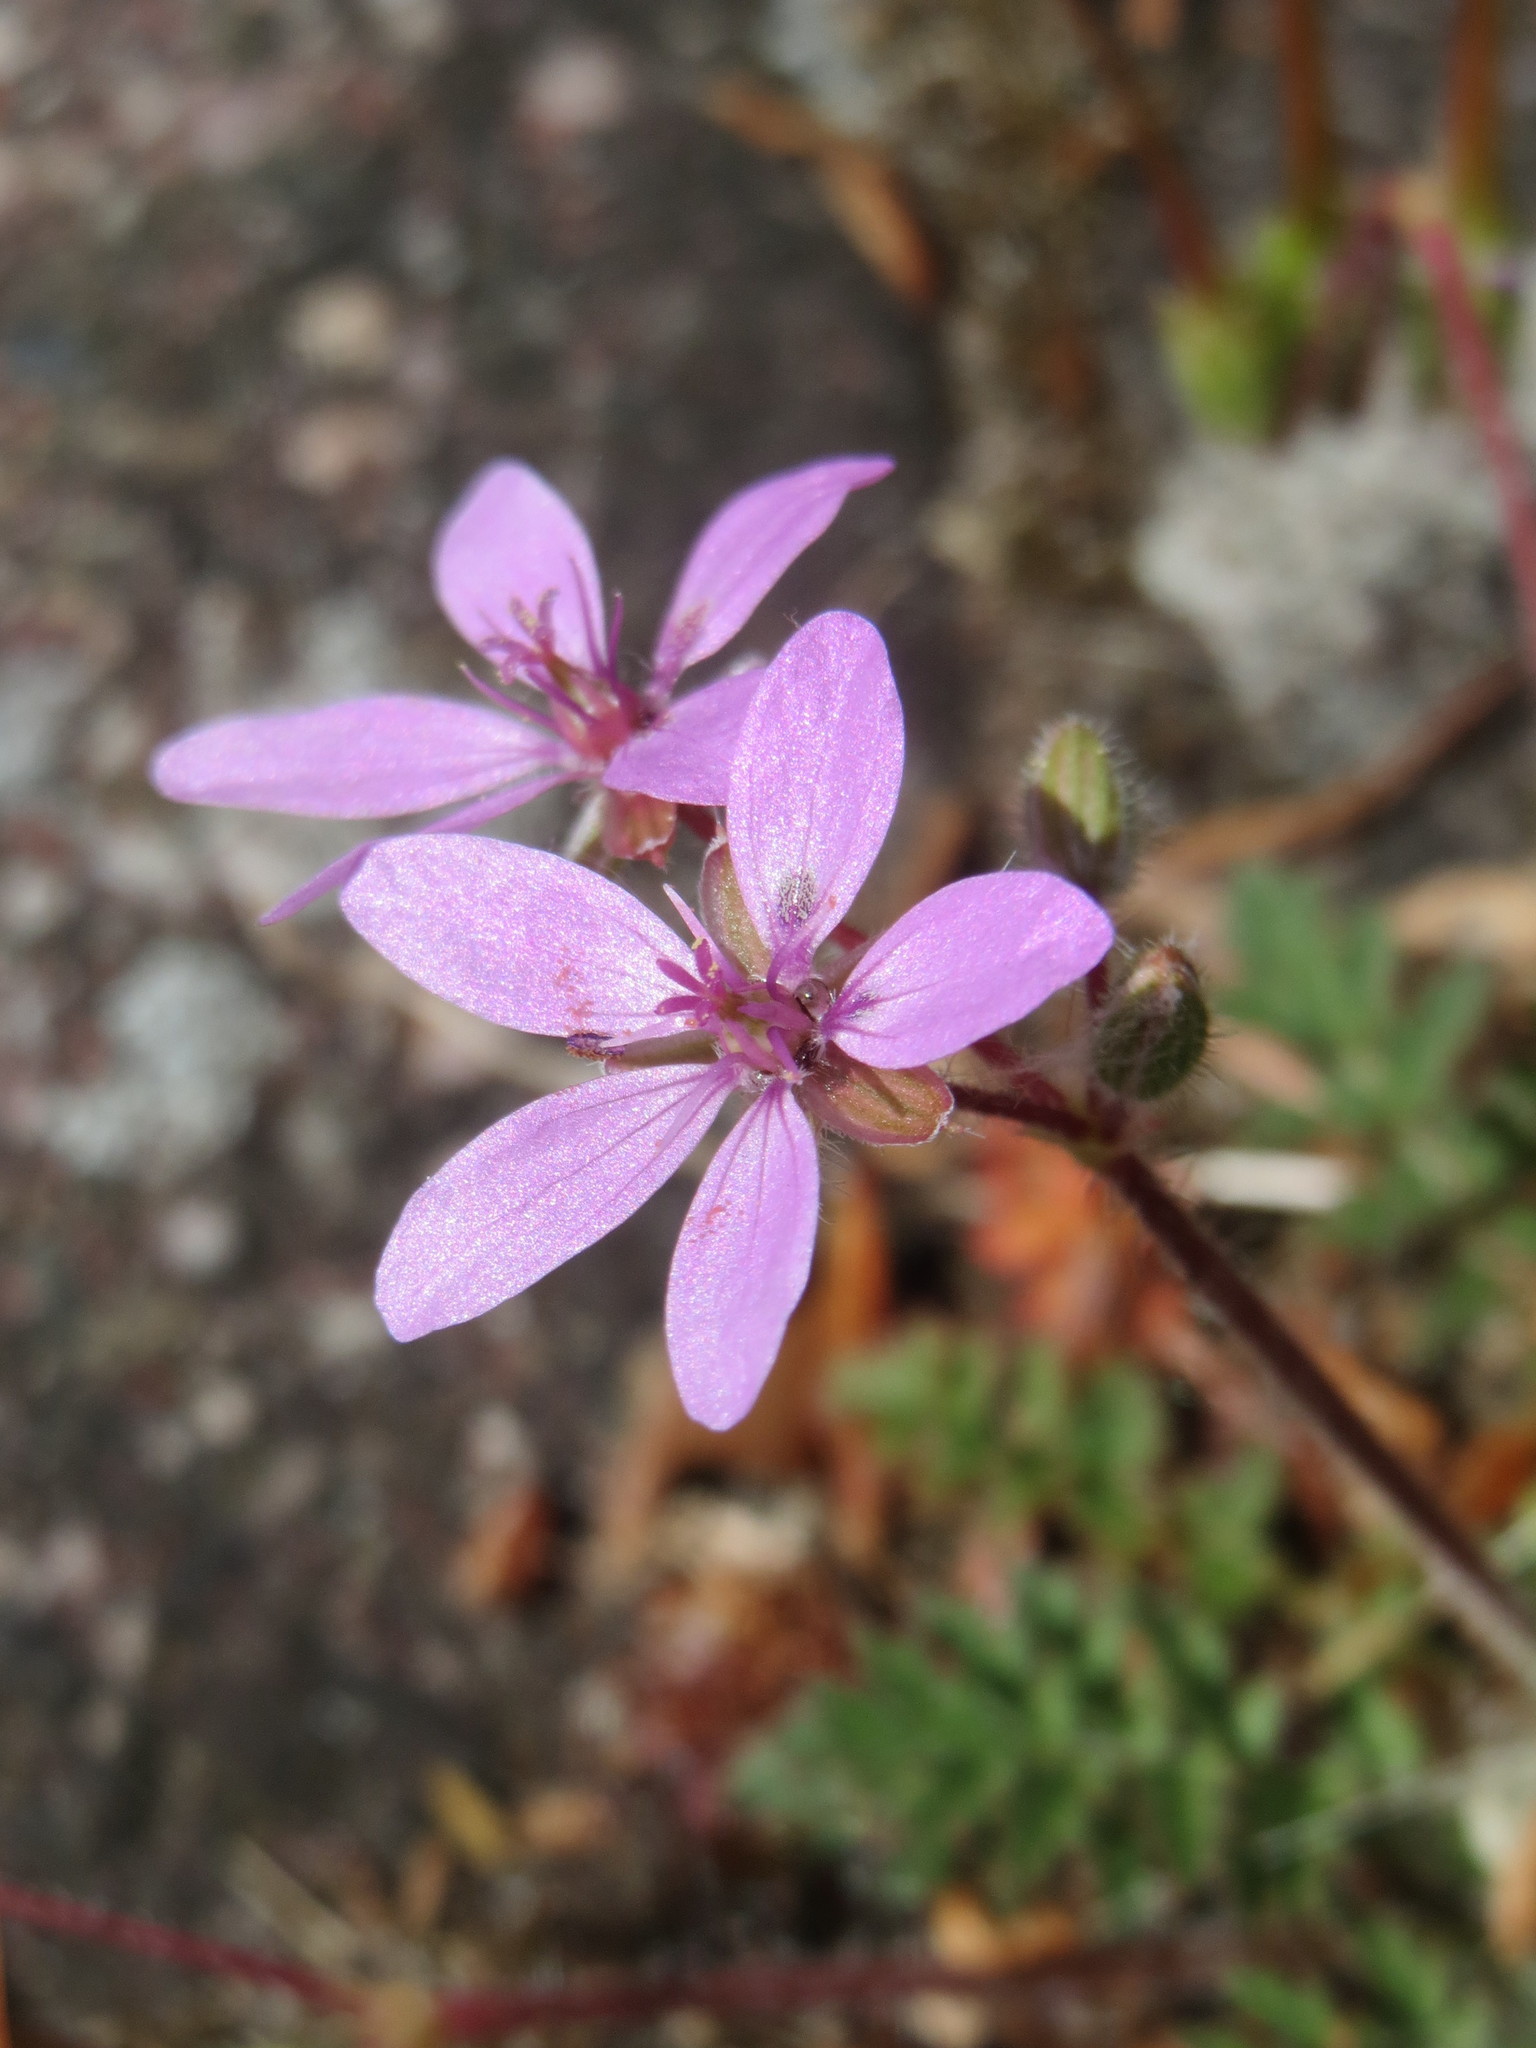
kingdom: Plantae
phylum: Tracheophyta
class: Magnoliopsida
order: Geraniales
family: Geraniaceae
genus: Erodium
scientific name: Erodium cicutarium
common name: Common stork's-bill
